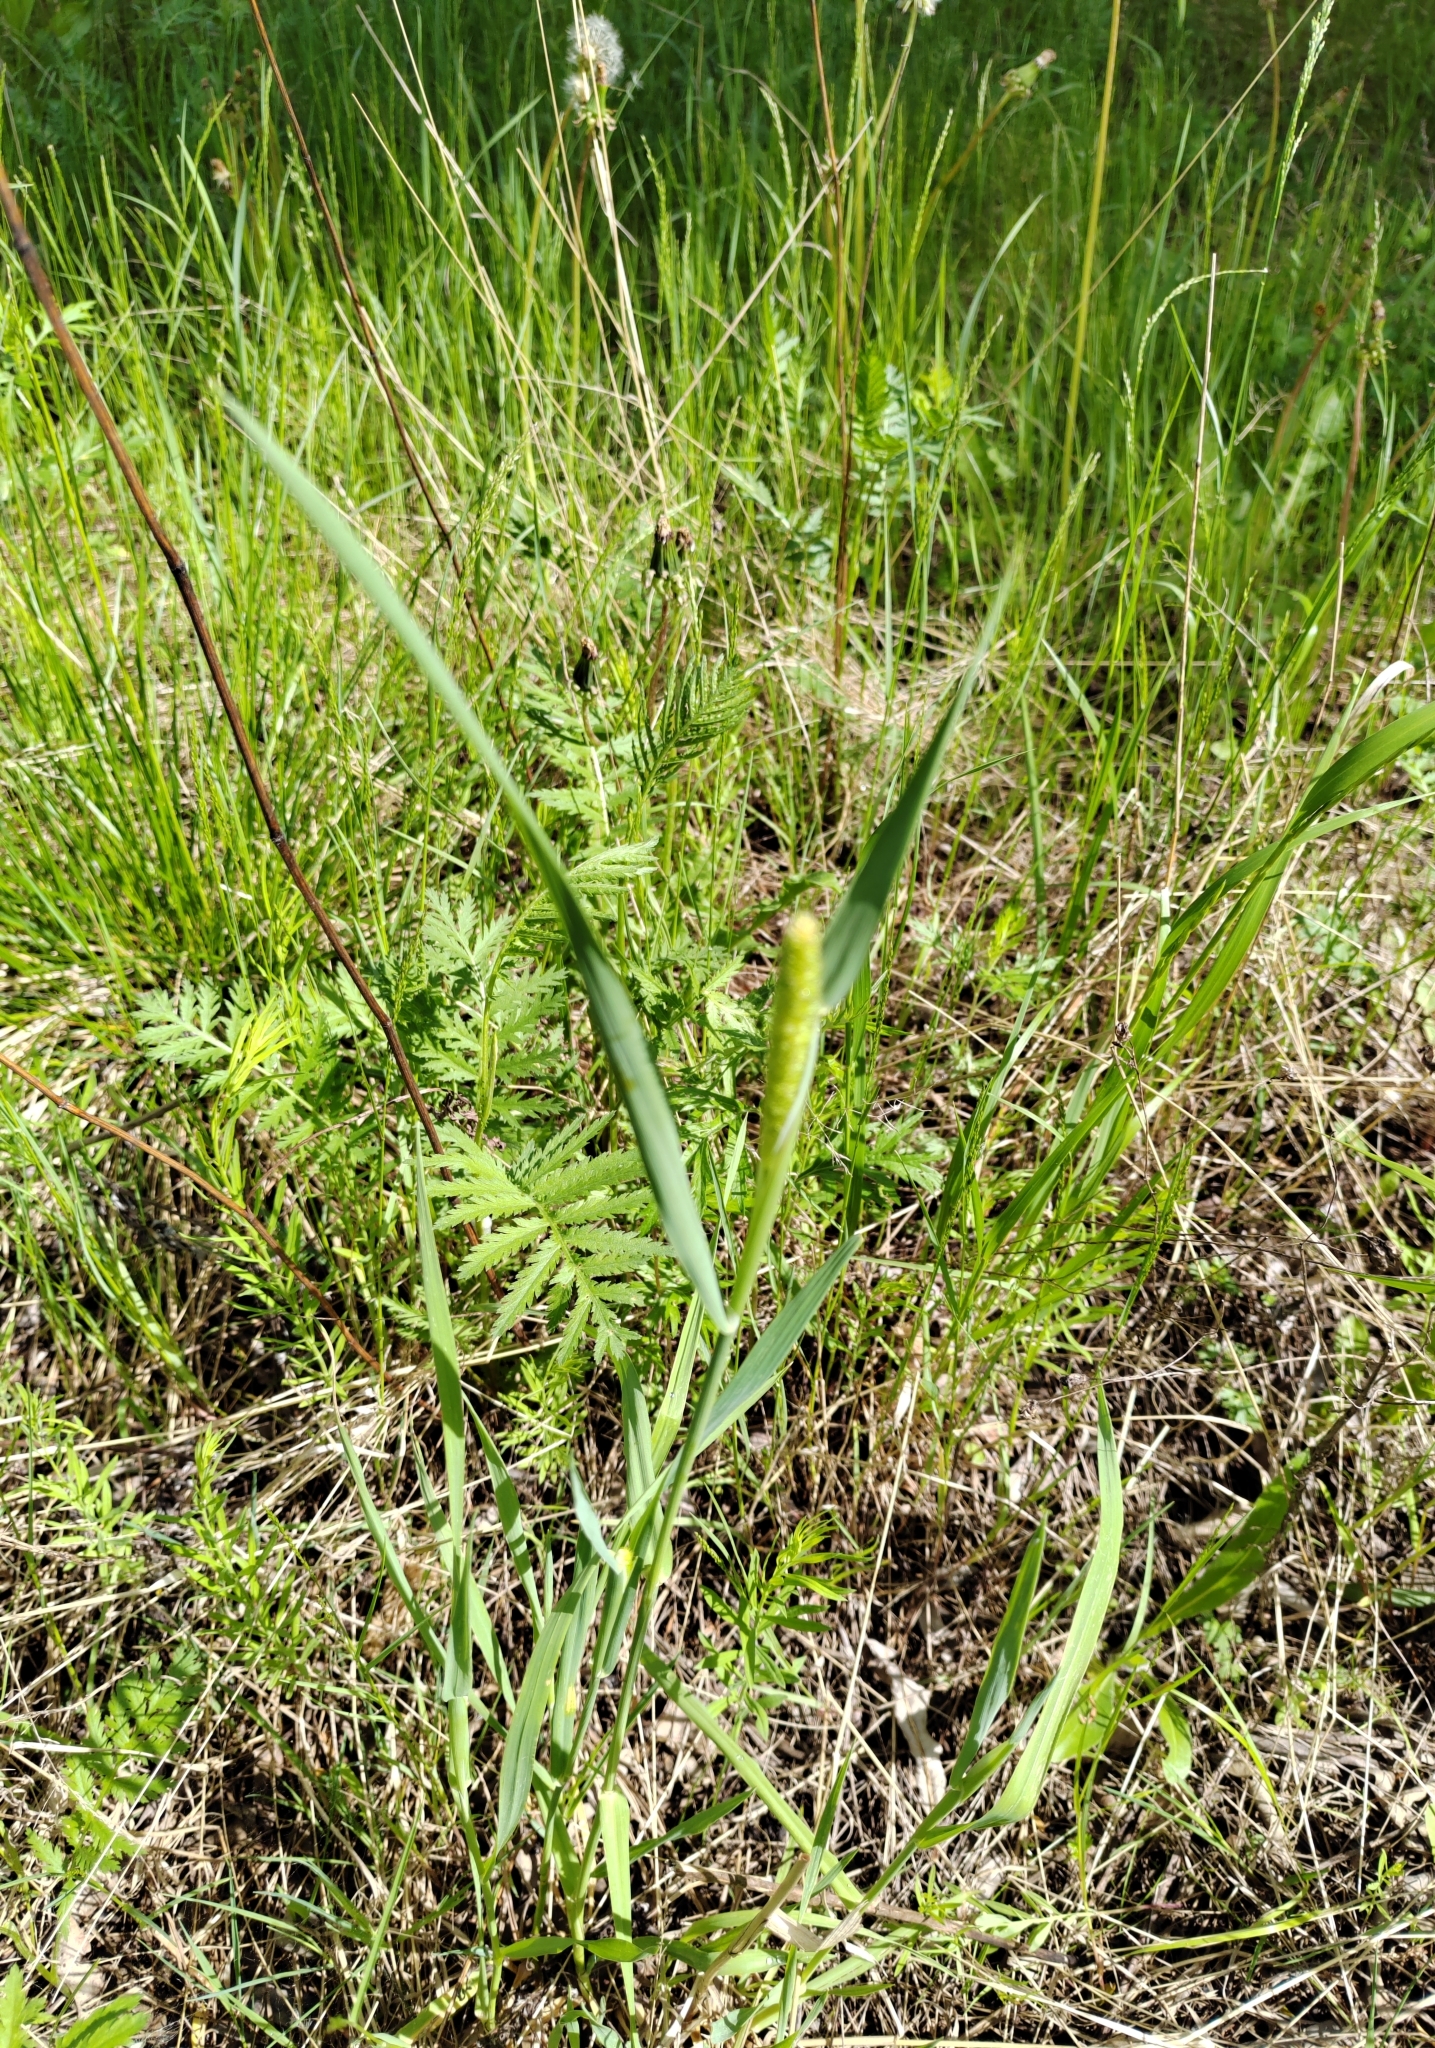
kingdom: Plantae
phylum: Tracheophyta
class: Liliopsida
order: Poales
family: Poaceae
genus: Phleum
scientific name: Phleum pratense
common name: Timothy grass
